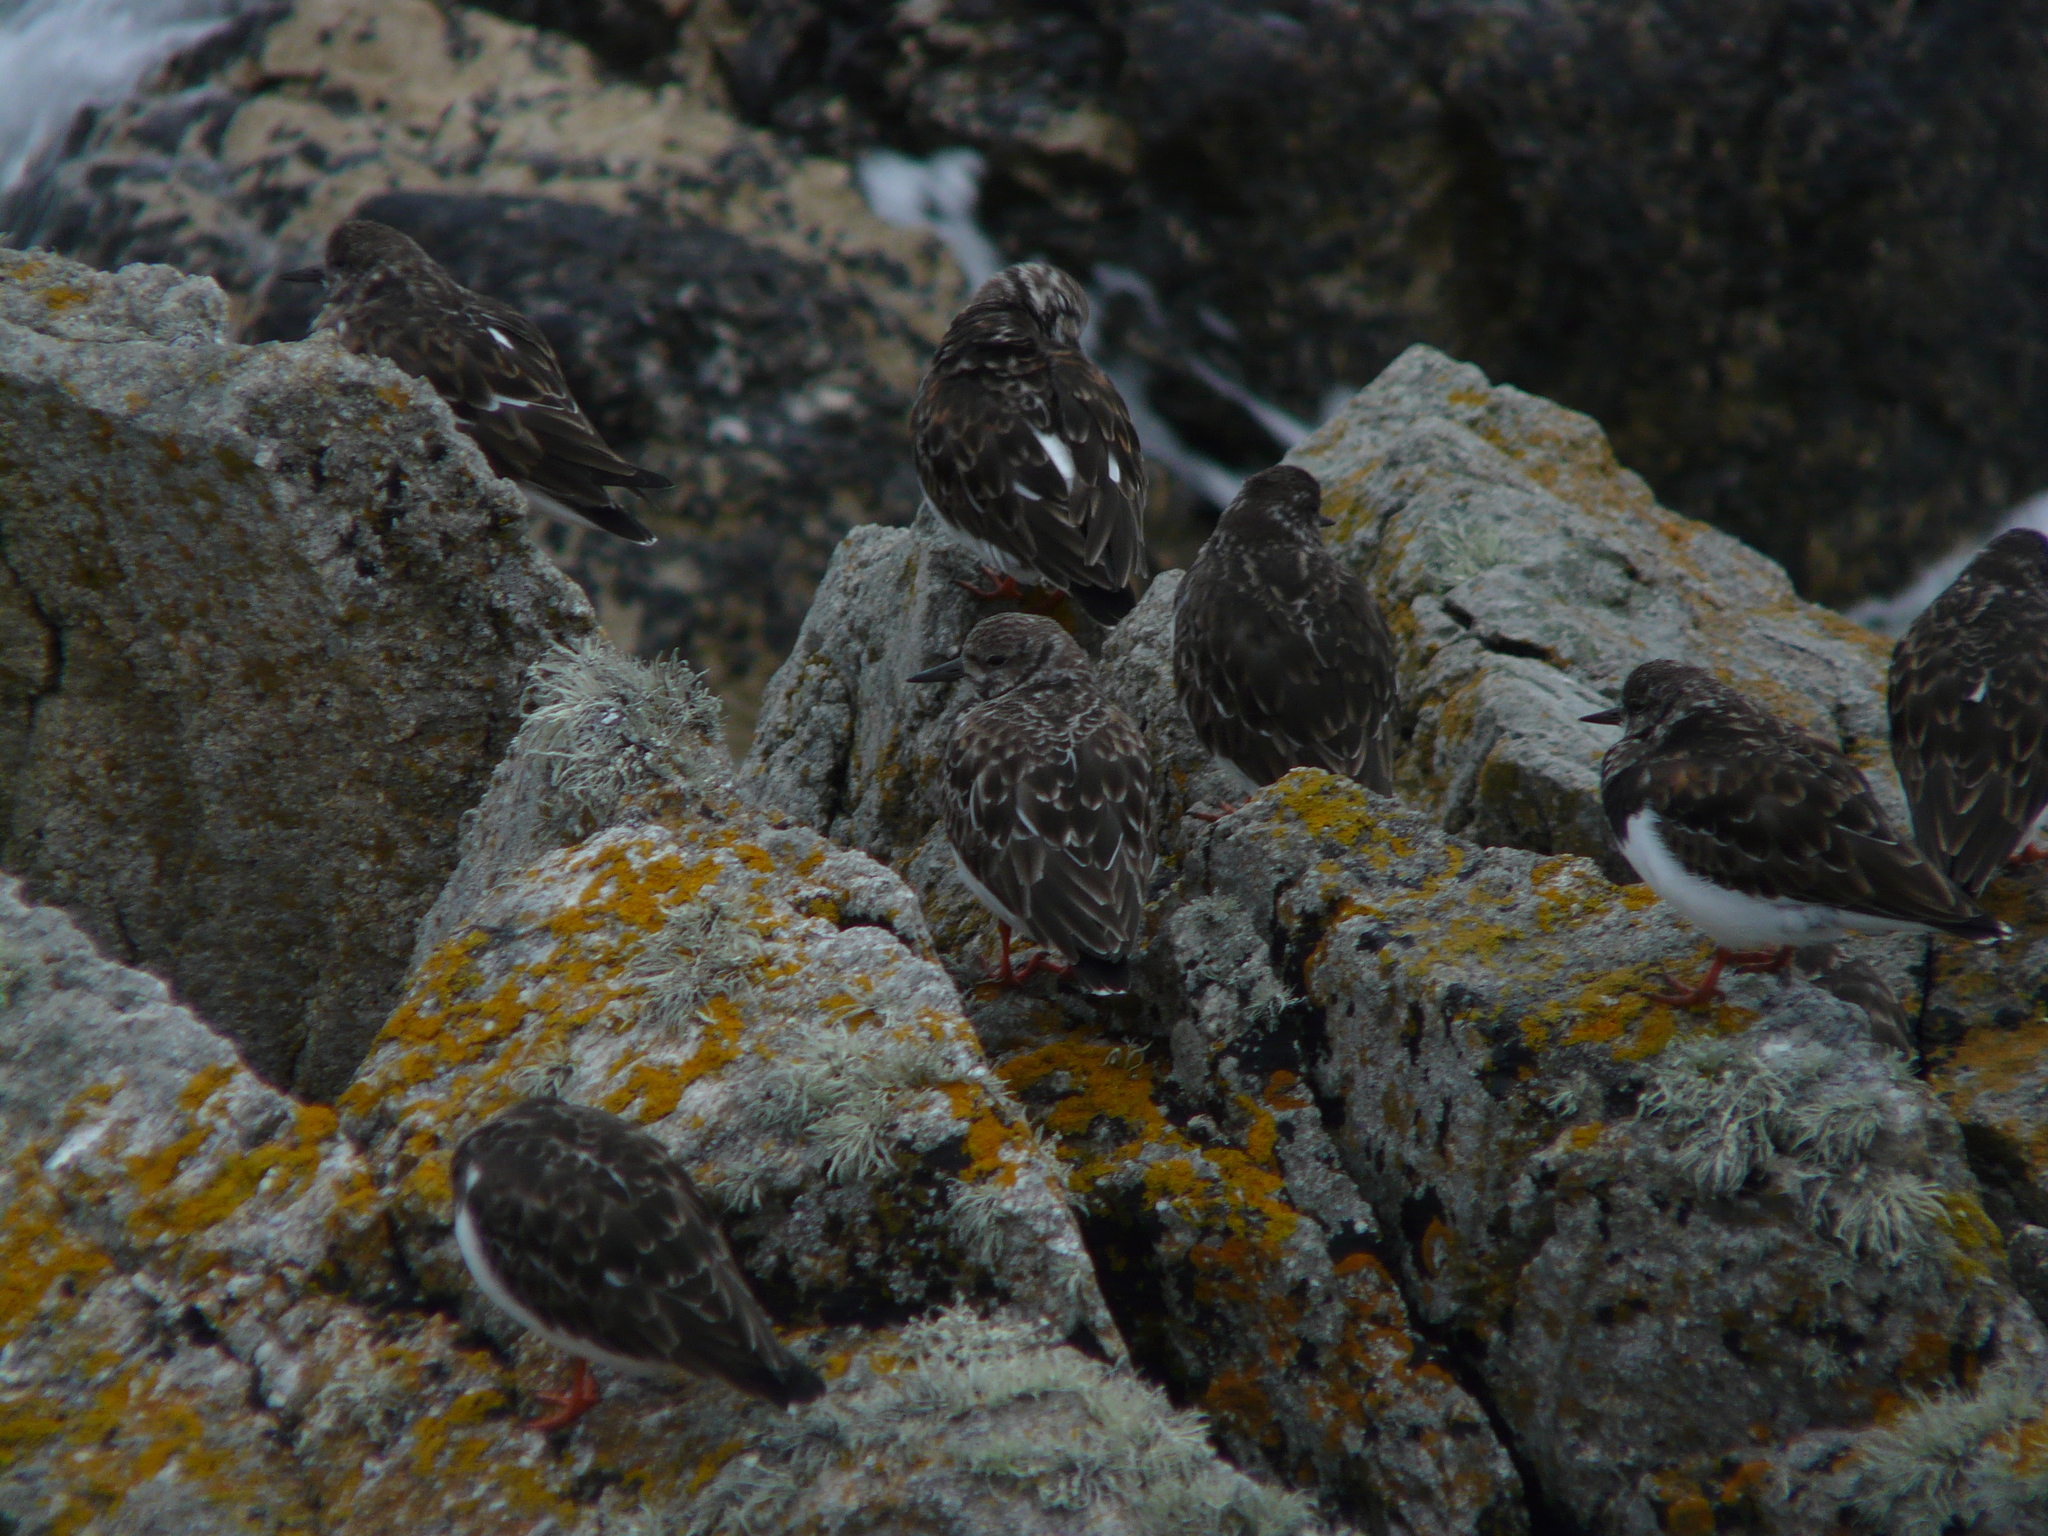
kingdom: Animalia
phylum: Chordata
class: Aves
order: Charadriiformes
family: Scolopacidae
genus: Arenaria
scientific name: Arenaria interpres
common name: Ruddy turnstone
